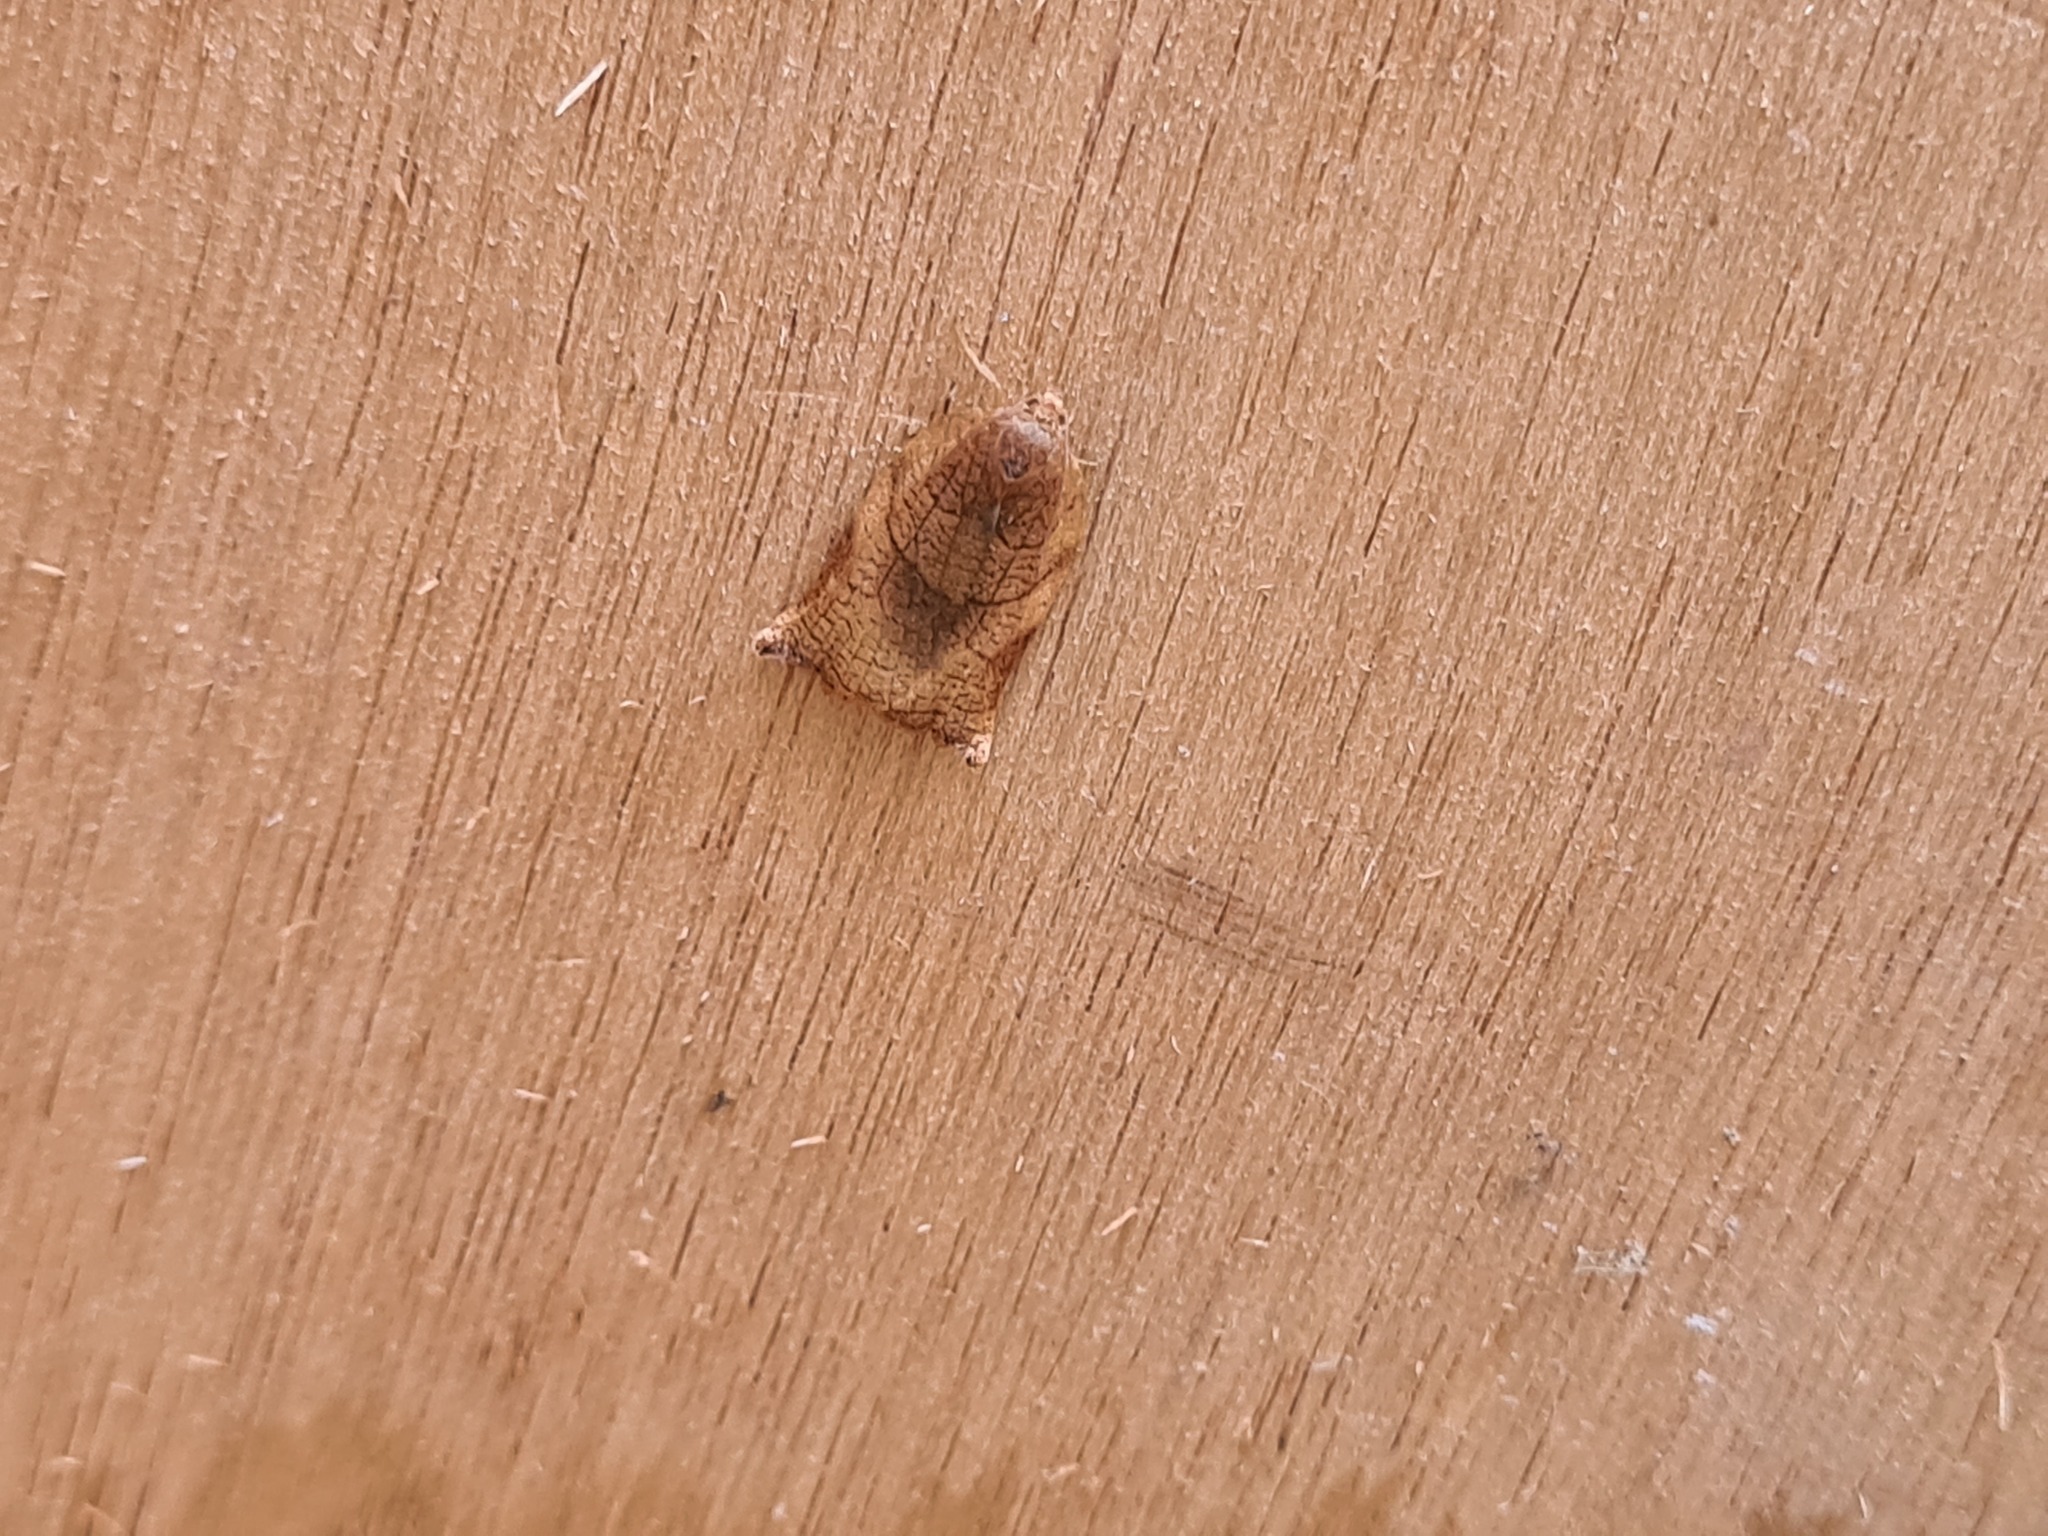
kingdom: Animalia
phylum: Arthropoda
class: Insecta
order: Lepidoptera
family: Tortricidae
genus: Cacoecimorpha
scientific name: Cacoecimorpha pronubana
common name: Carnation tortrix
